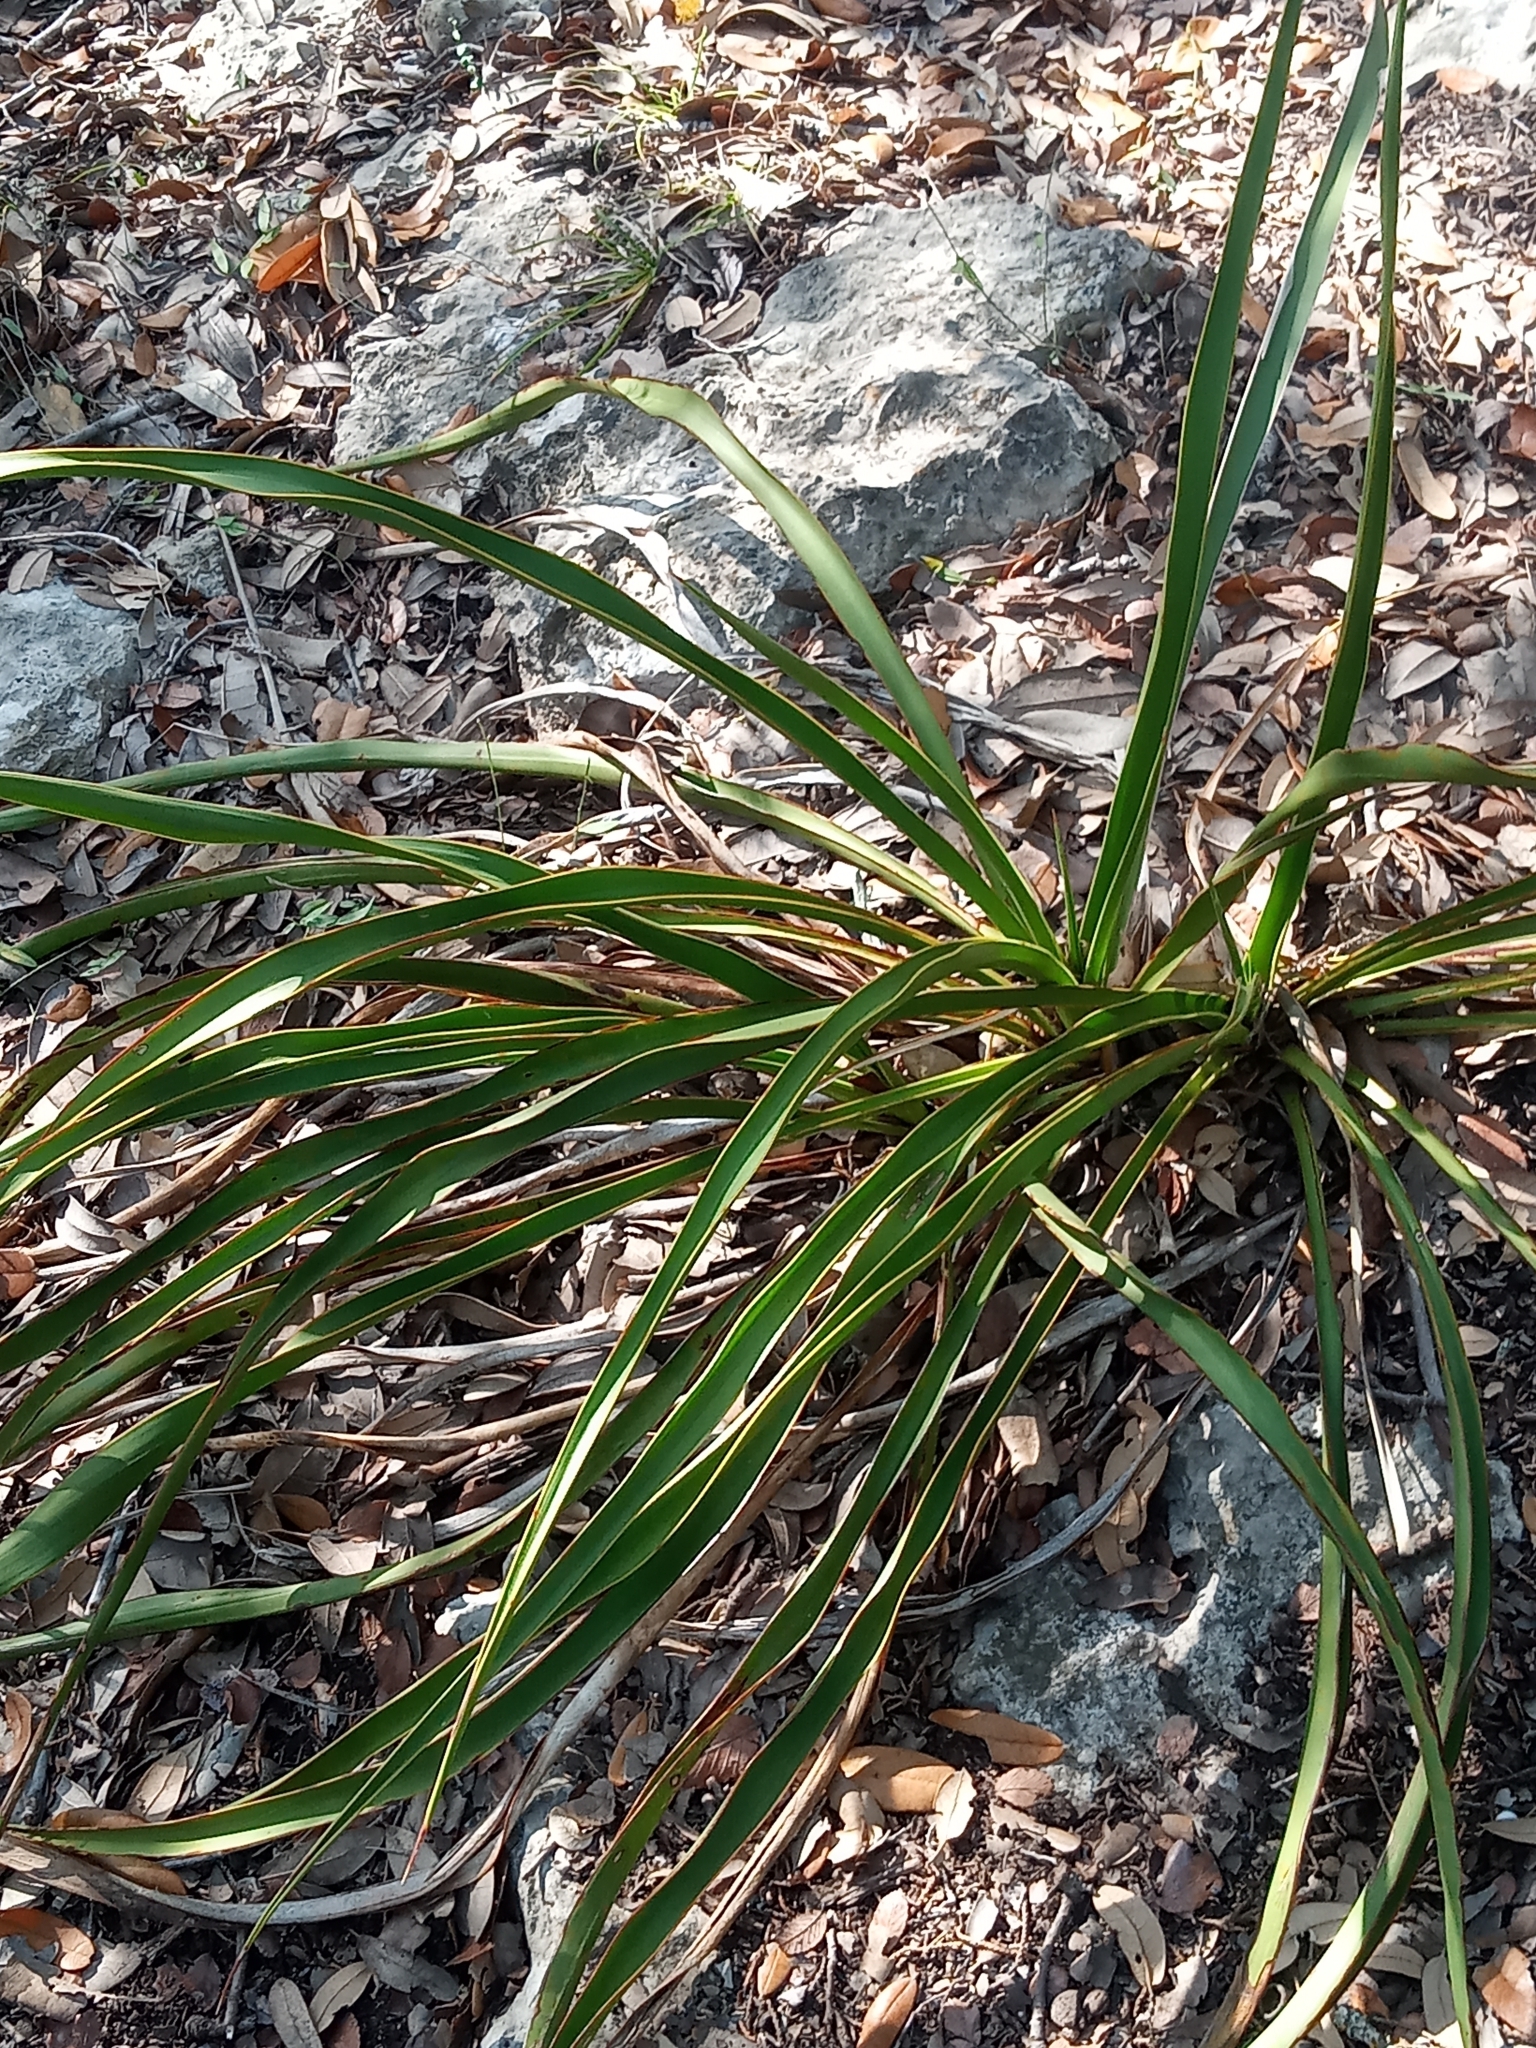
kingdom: Plantae
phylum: Tracheophyta
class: Liliopsida
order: Asparagales
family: Asparagaceae
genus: Yucca
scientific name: Yucca rupicola
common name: Twisted-leaf spanish-dagger
